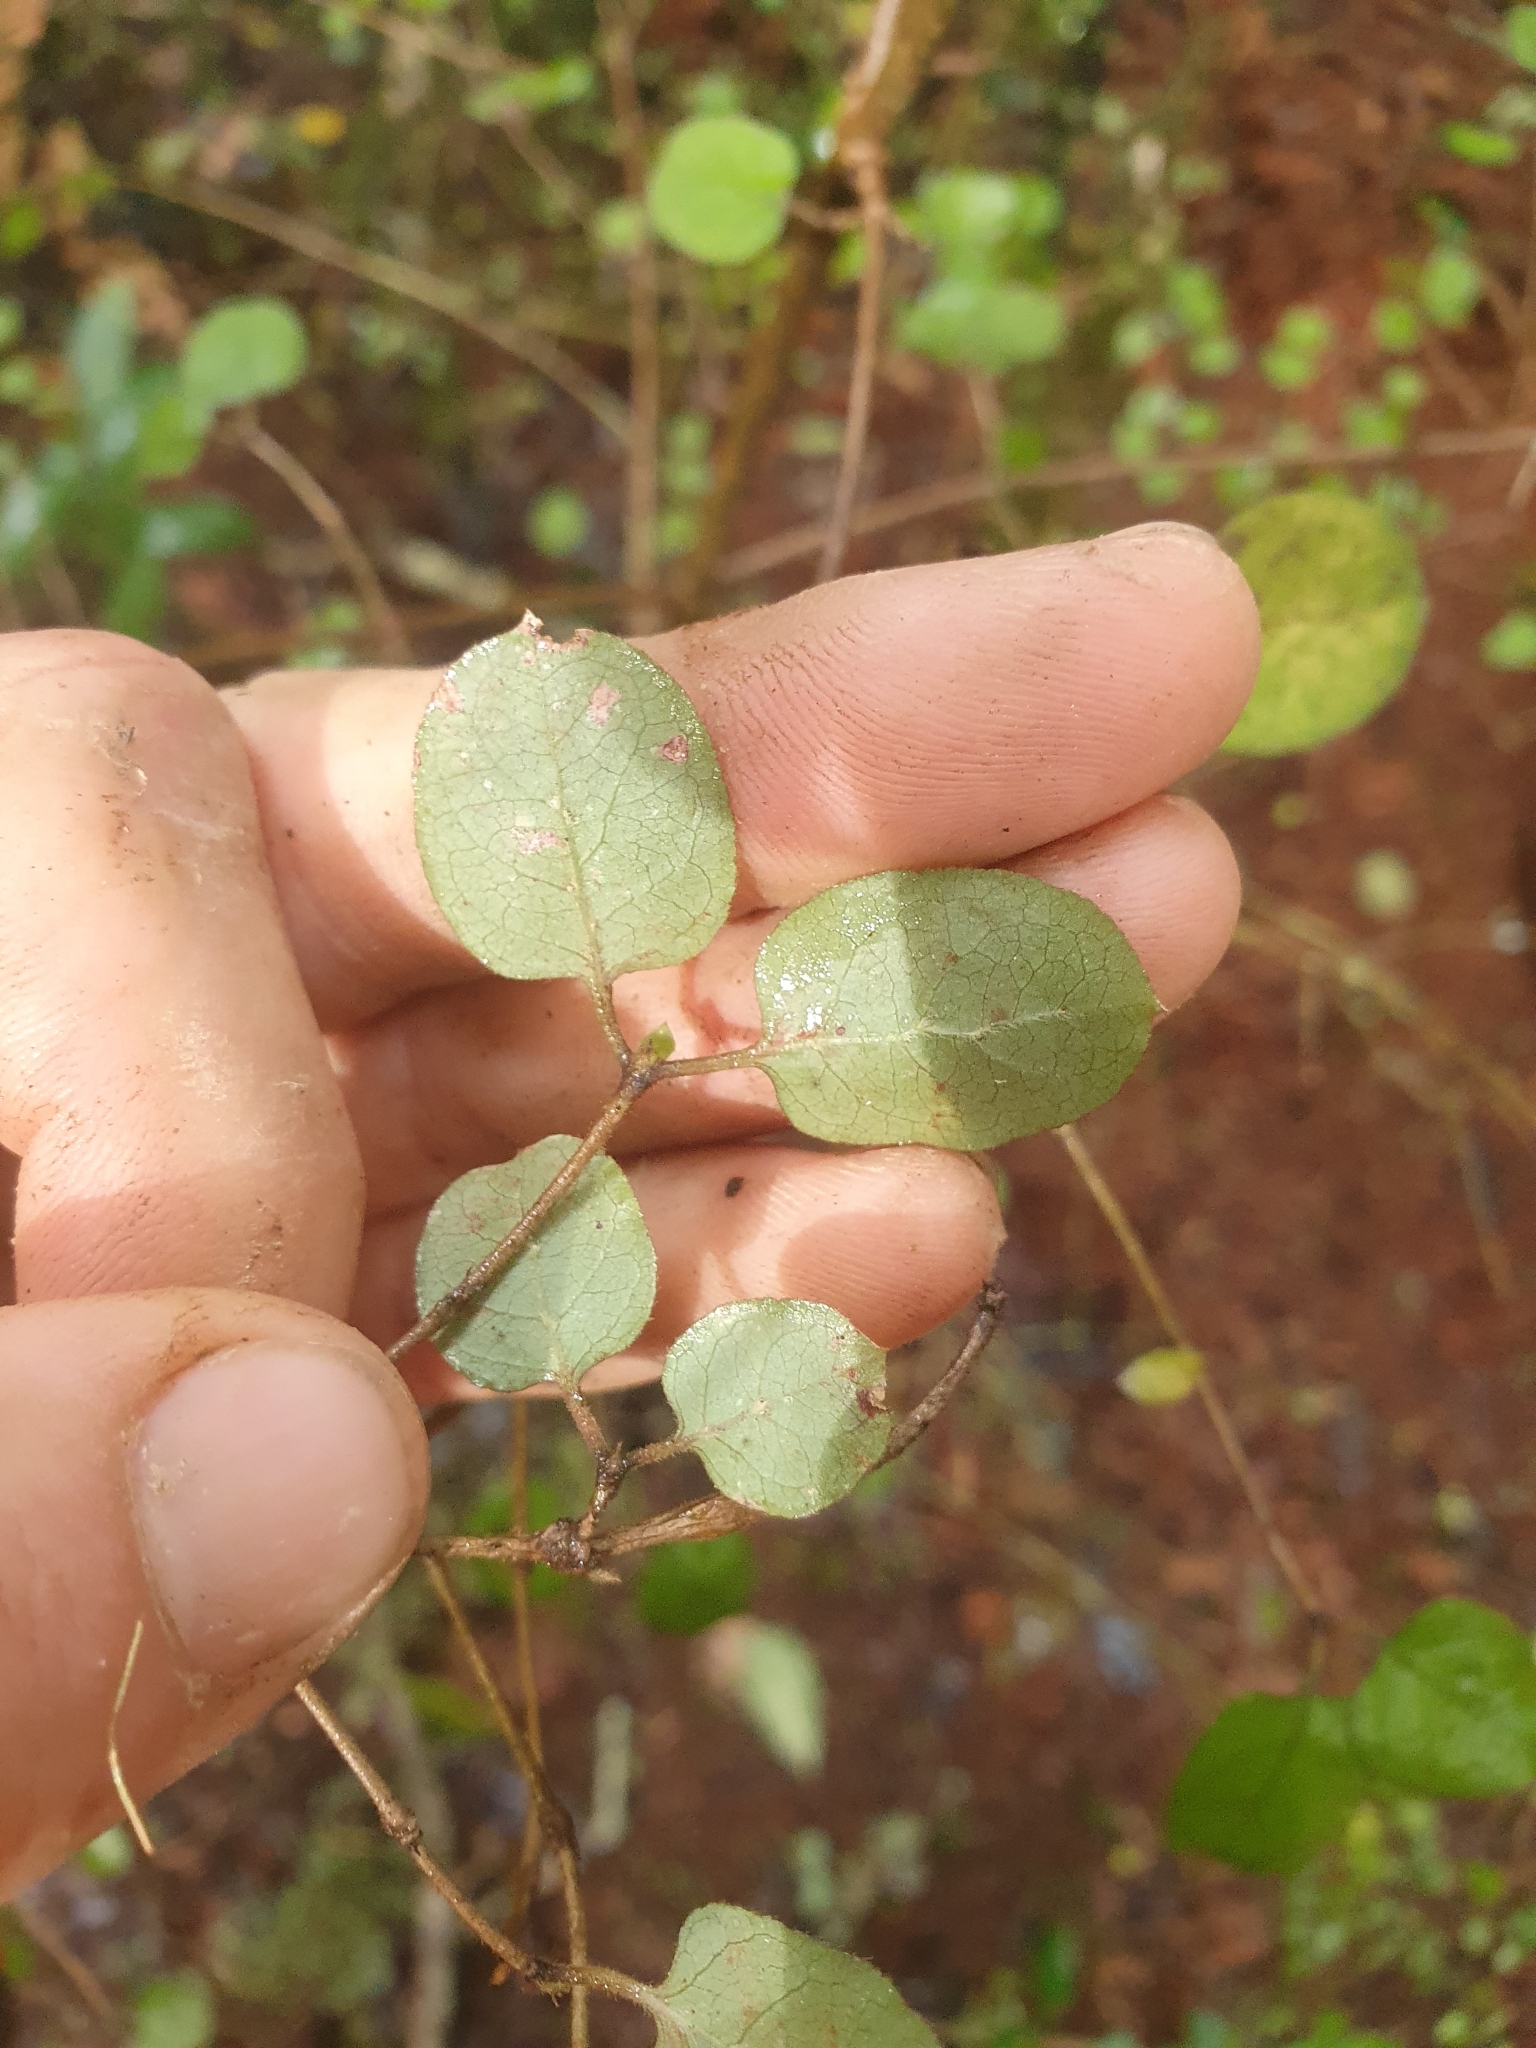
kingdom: Plantae
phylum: Tracheophyta
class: Magnoliopsida
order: Gentianales
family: Rubiaceae
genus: Coprosma
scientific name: Coprosma rotundifolia
